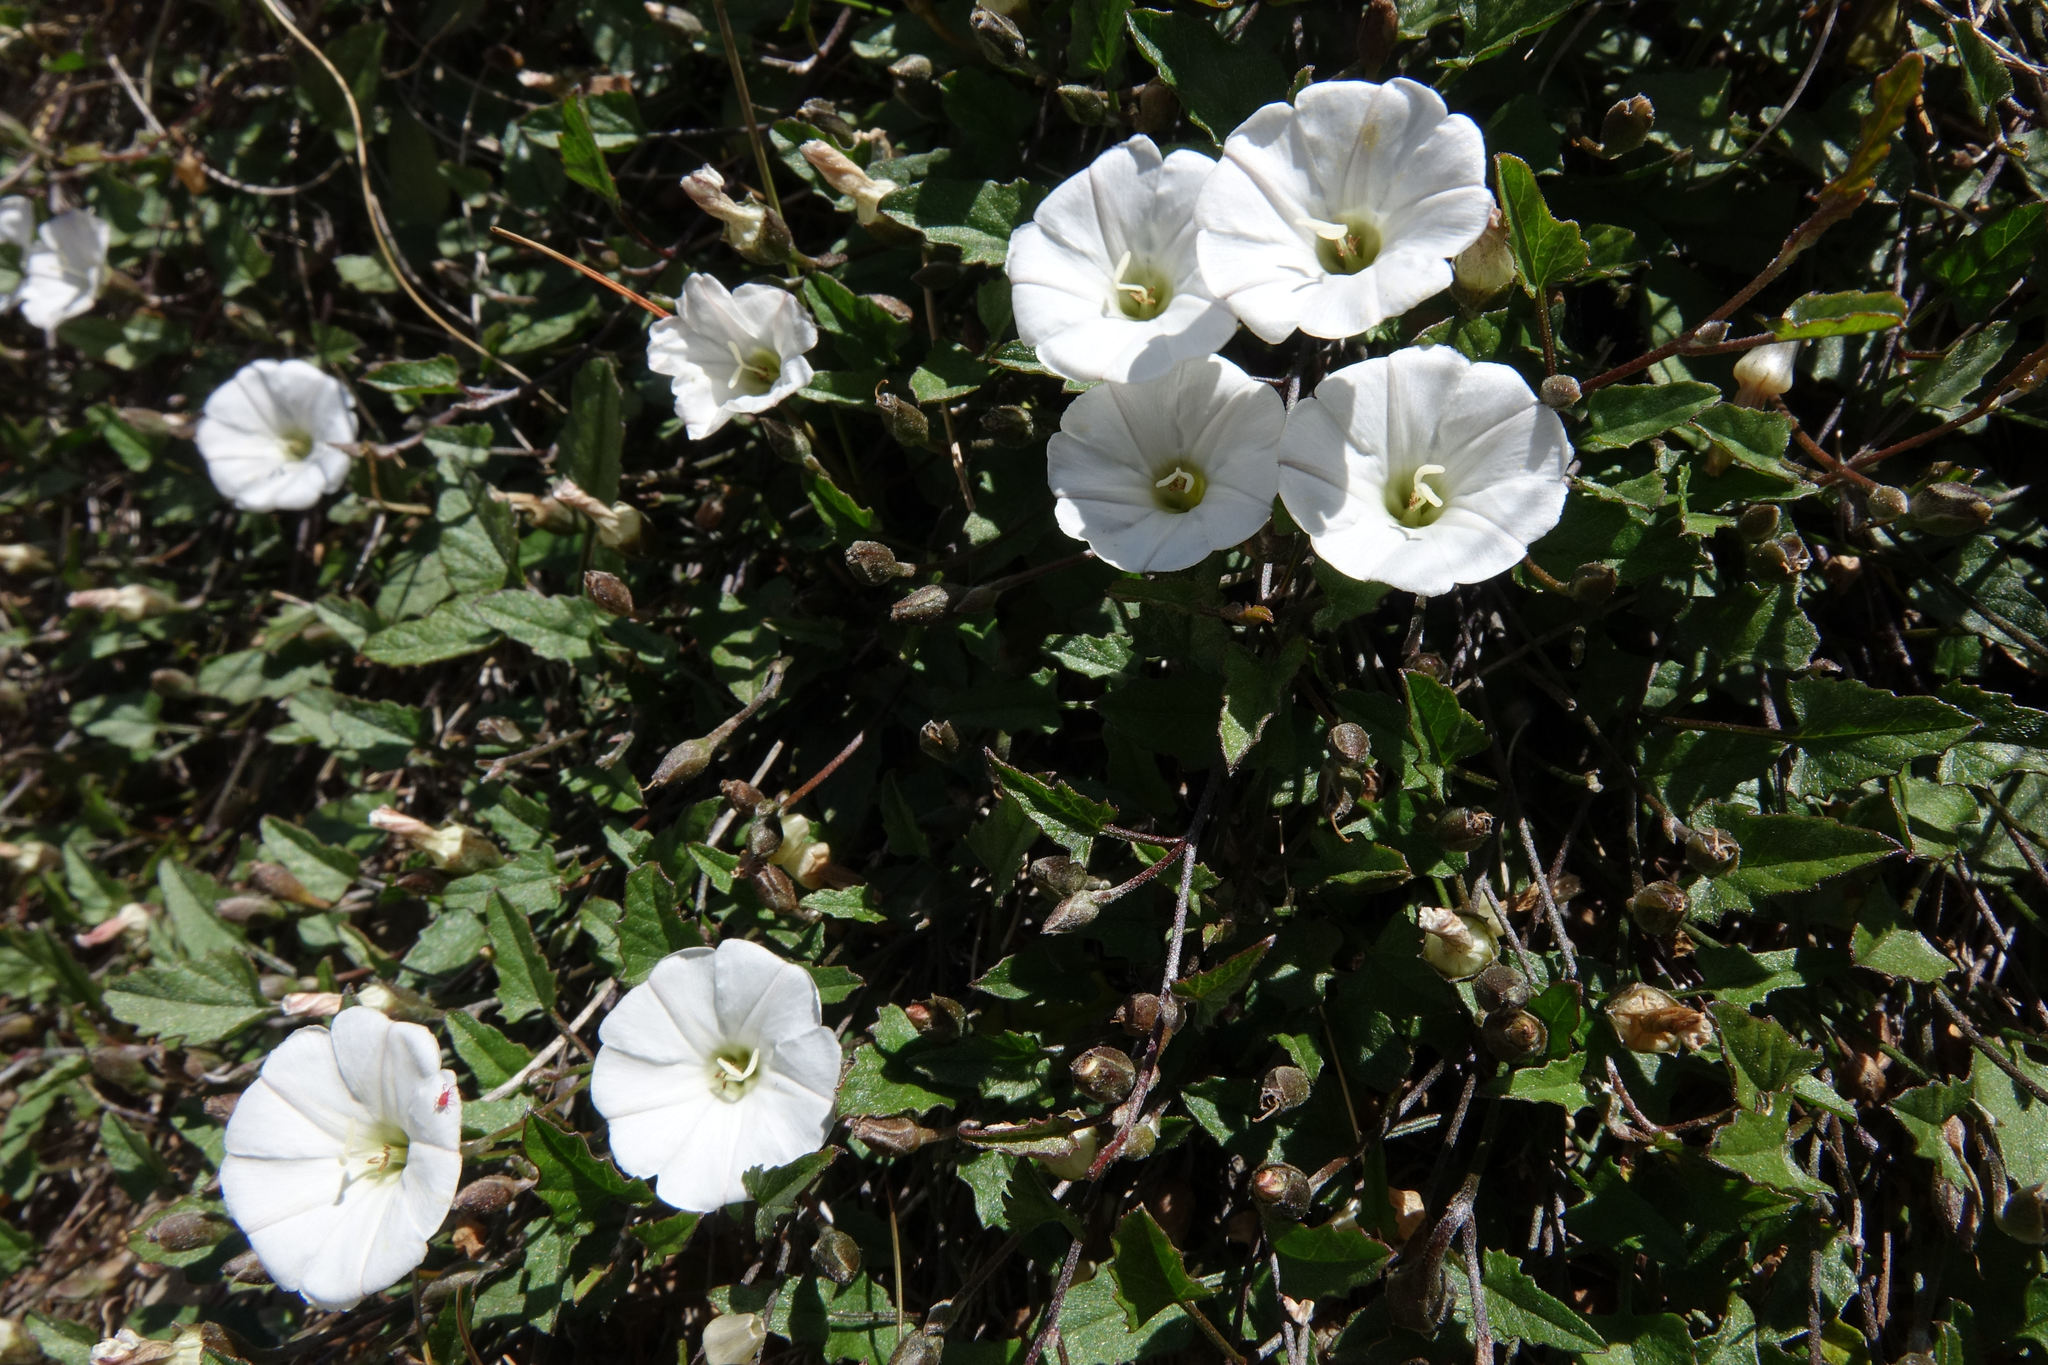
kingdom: Plantae
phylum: Tracheophyta
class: Magnoliopsida
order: Solanales
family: Convolvulaceae
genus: Convolvulus
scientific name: Convolvulus waitaha
